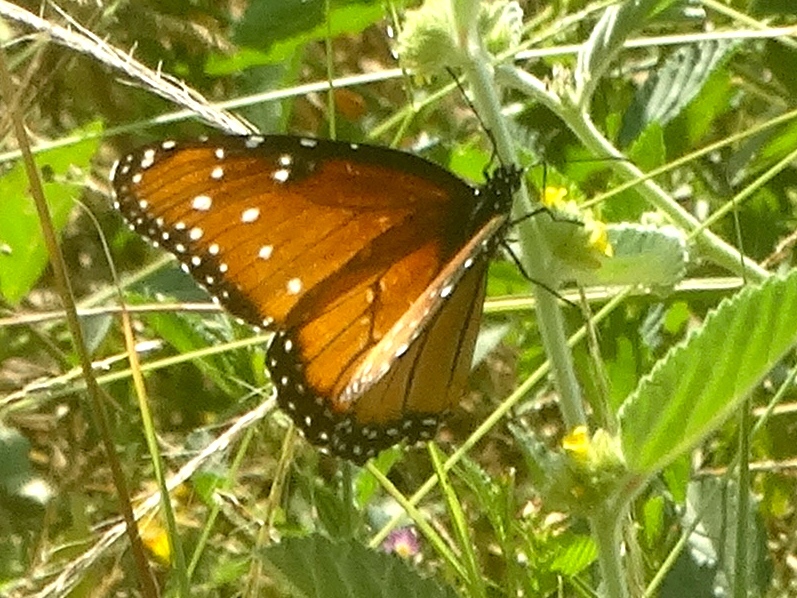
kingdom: Animalia
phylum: Arthropoda
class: Insecta
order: Lepidoptera
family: Nymphalidae
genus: Danaus
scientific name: Danaus gilippus
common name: Queen
